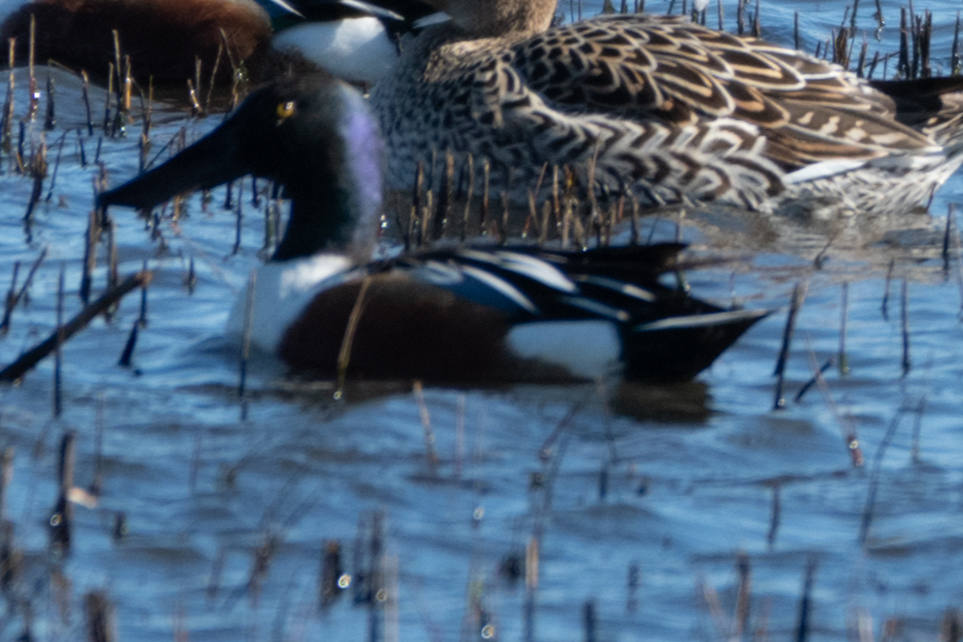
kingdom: Animalia
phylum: Chordata
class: Aves
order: Anseriformes
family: Anatidae
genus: Spatula
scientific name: Spatula clypeata
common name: Northern shoveler
